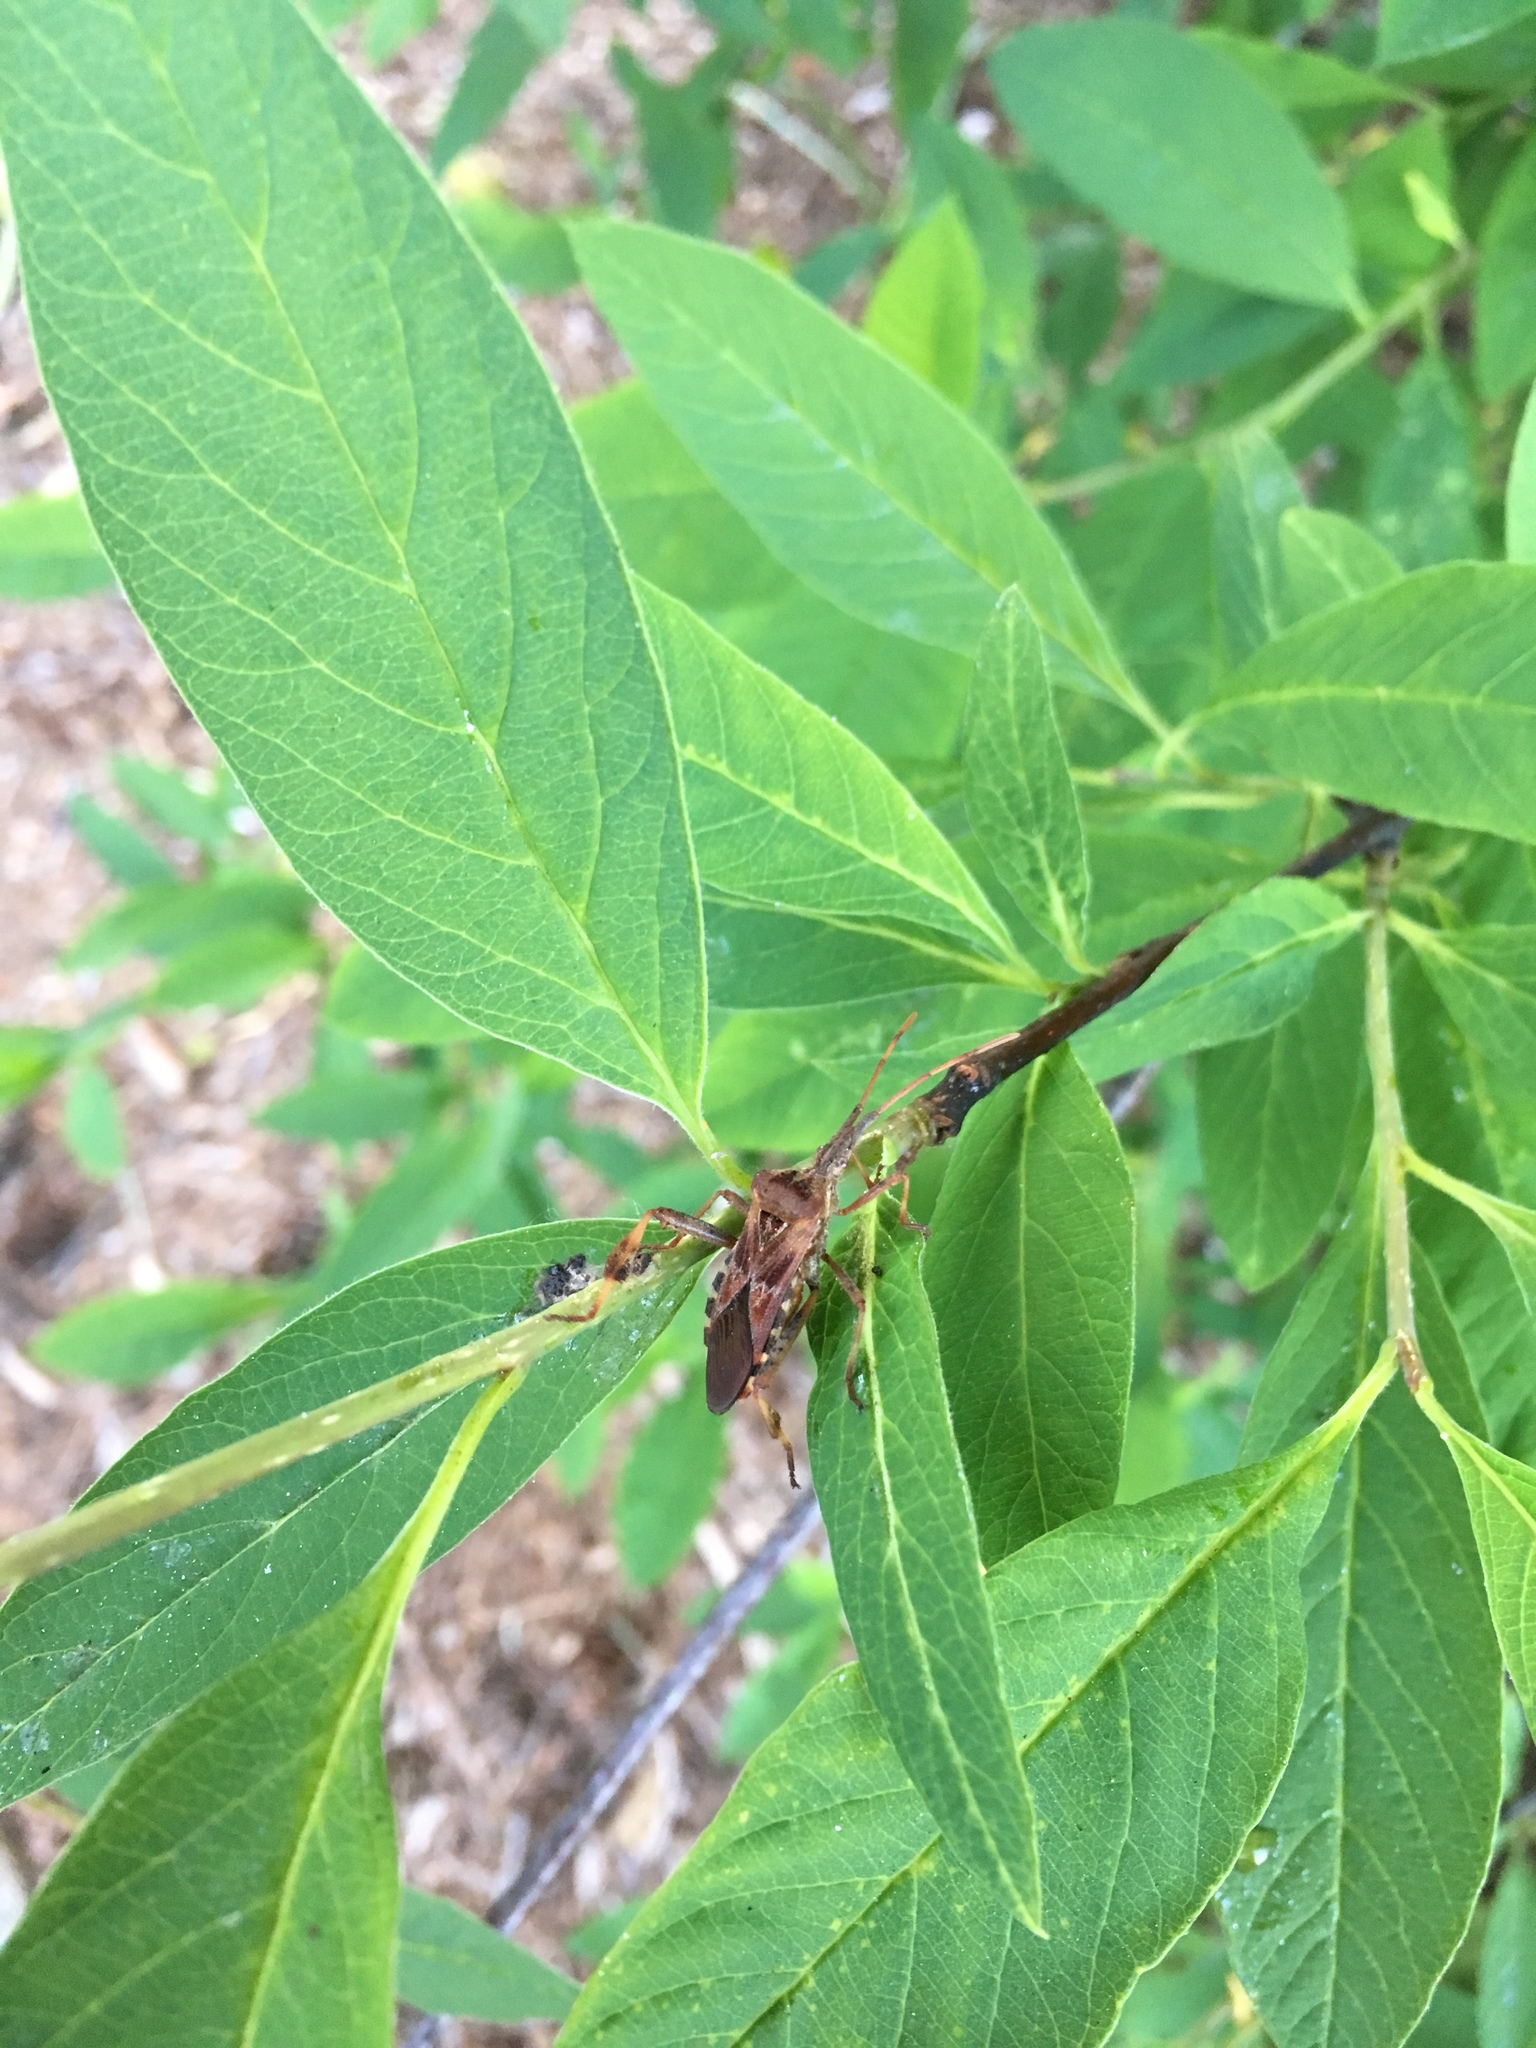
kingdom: Animalia
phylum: Arthropoda
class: Insecta
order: Hemiptera
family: Coreidae
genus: Leptoglossus
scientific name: Leptoglossus occidentalis
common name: Western conifer-seed bug
